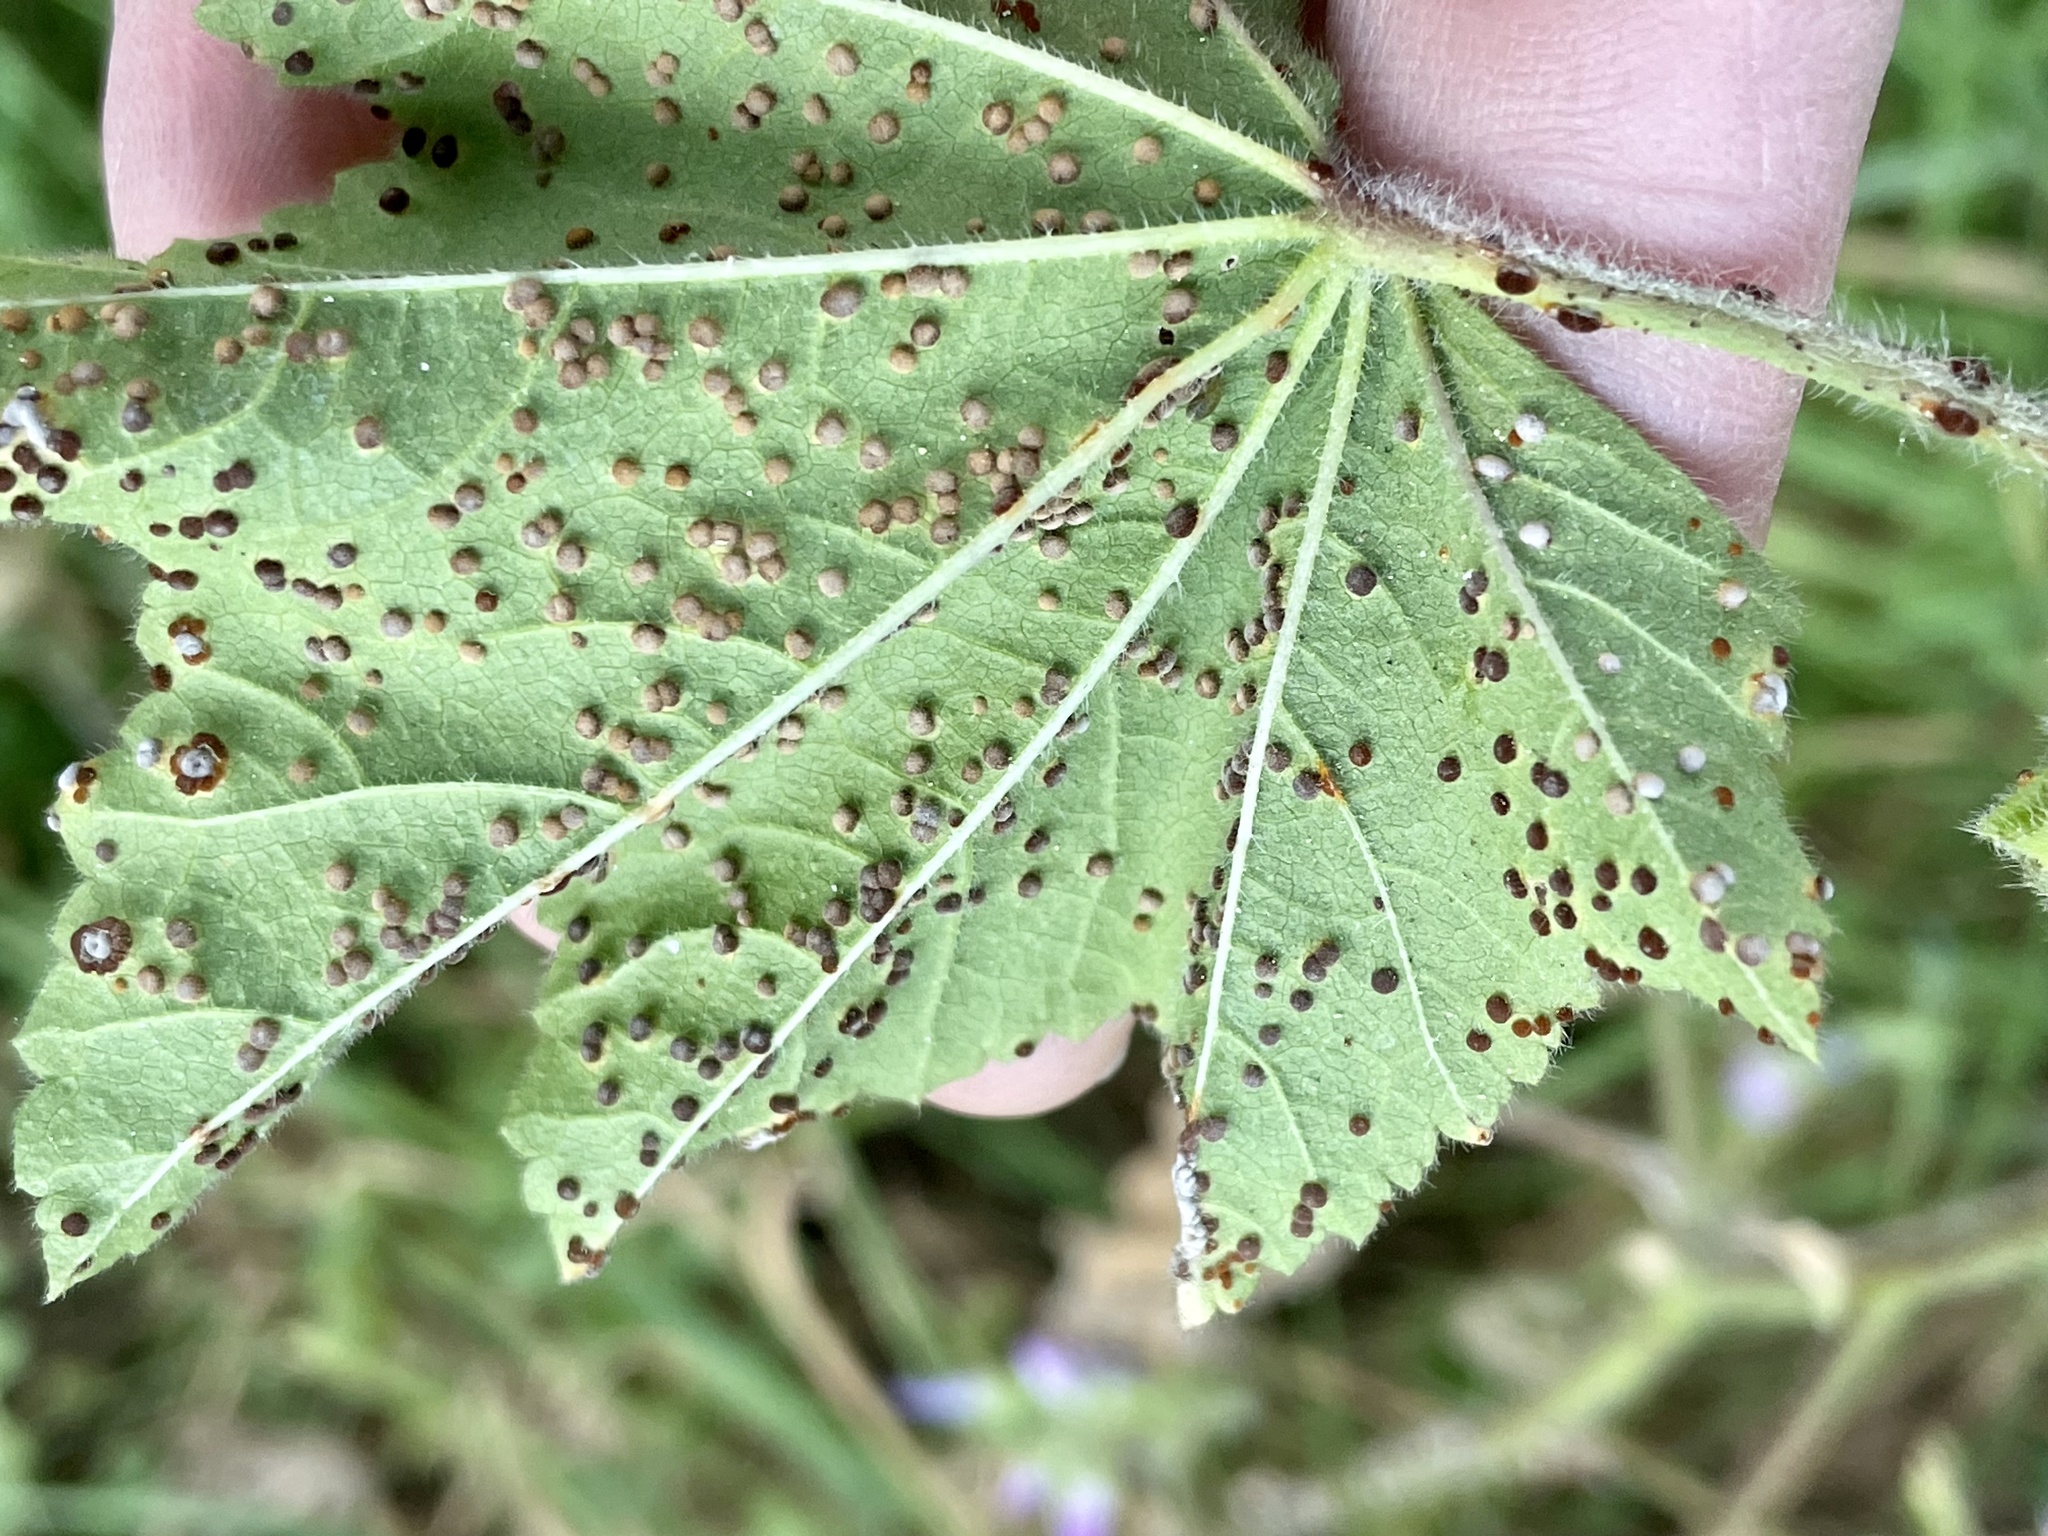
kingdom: Fungi
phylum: Basidiomycota
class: Pucciniomycetes
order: Pucciniales
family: Pucciniaceae
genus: Puccinia
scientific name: Puccinia malvacearum
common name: Hollyhock rust
